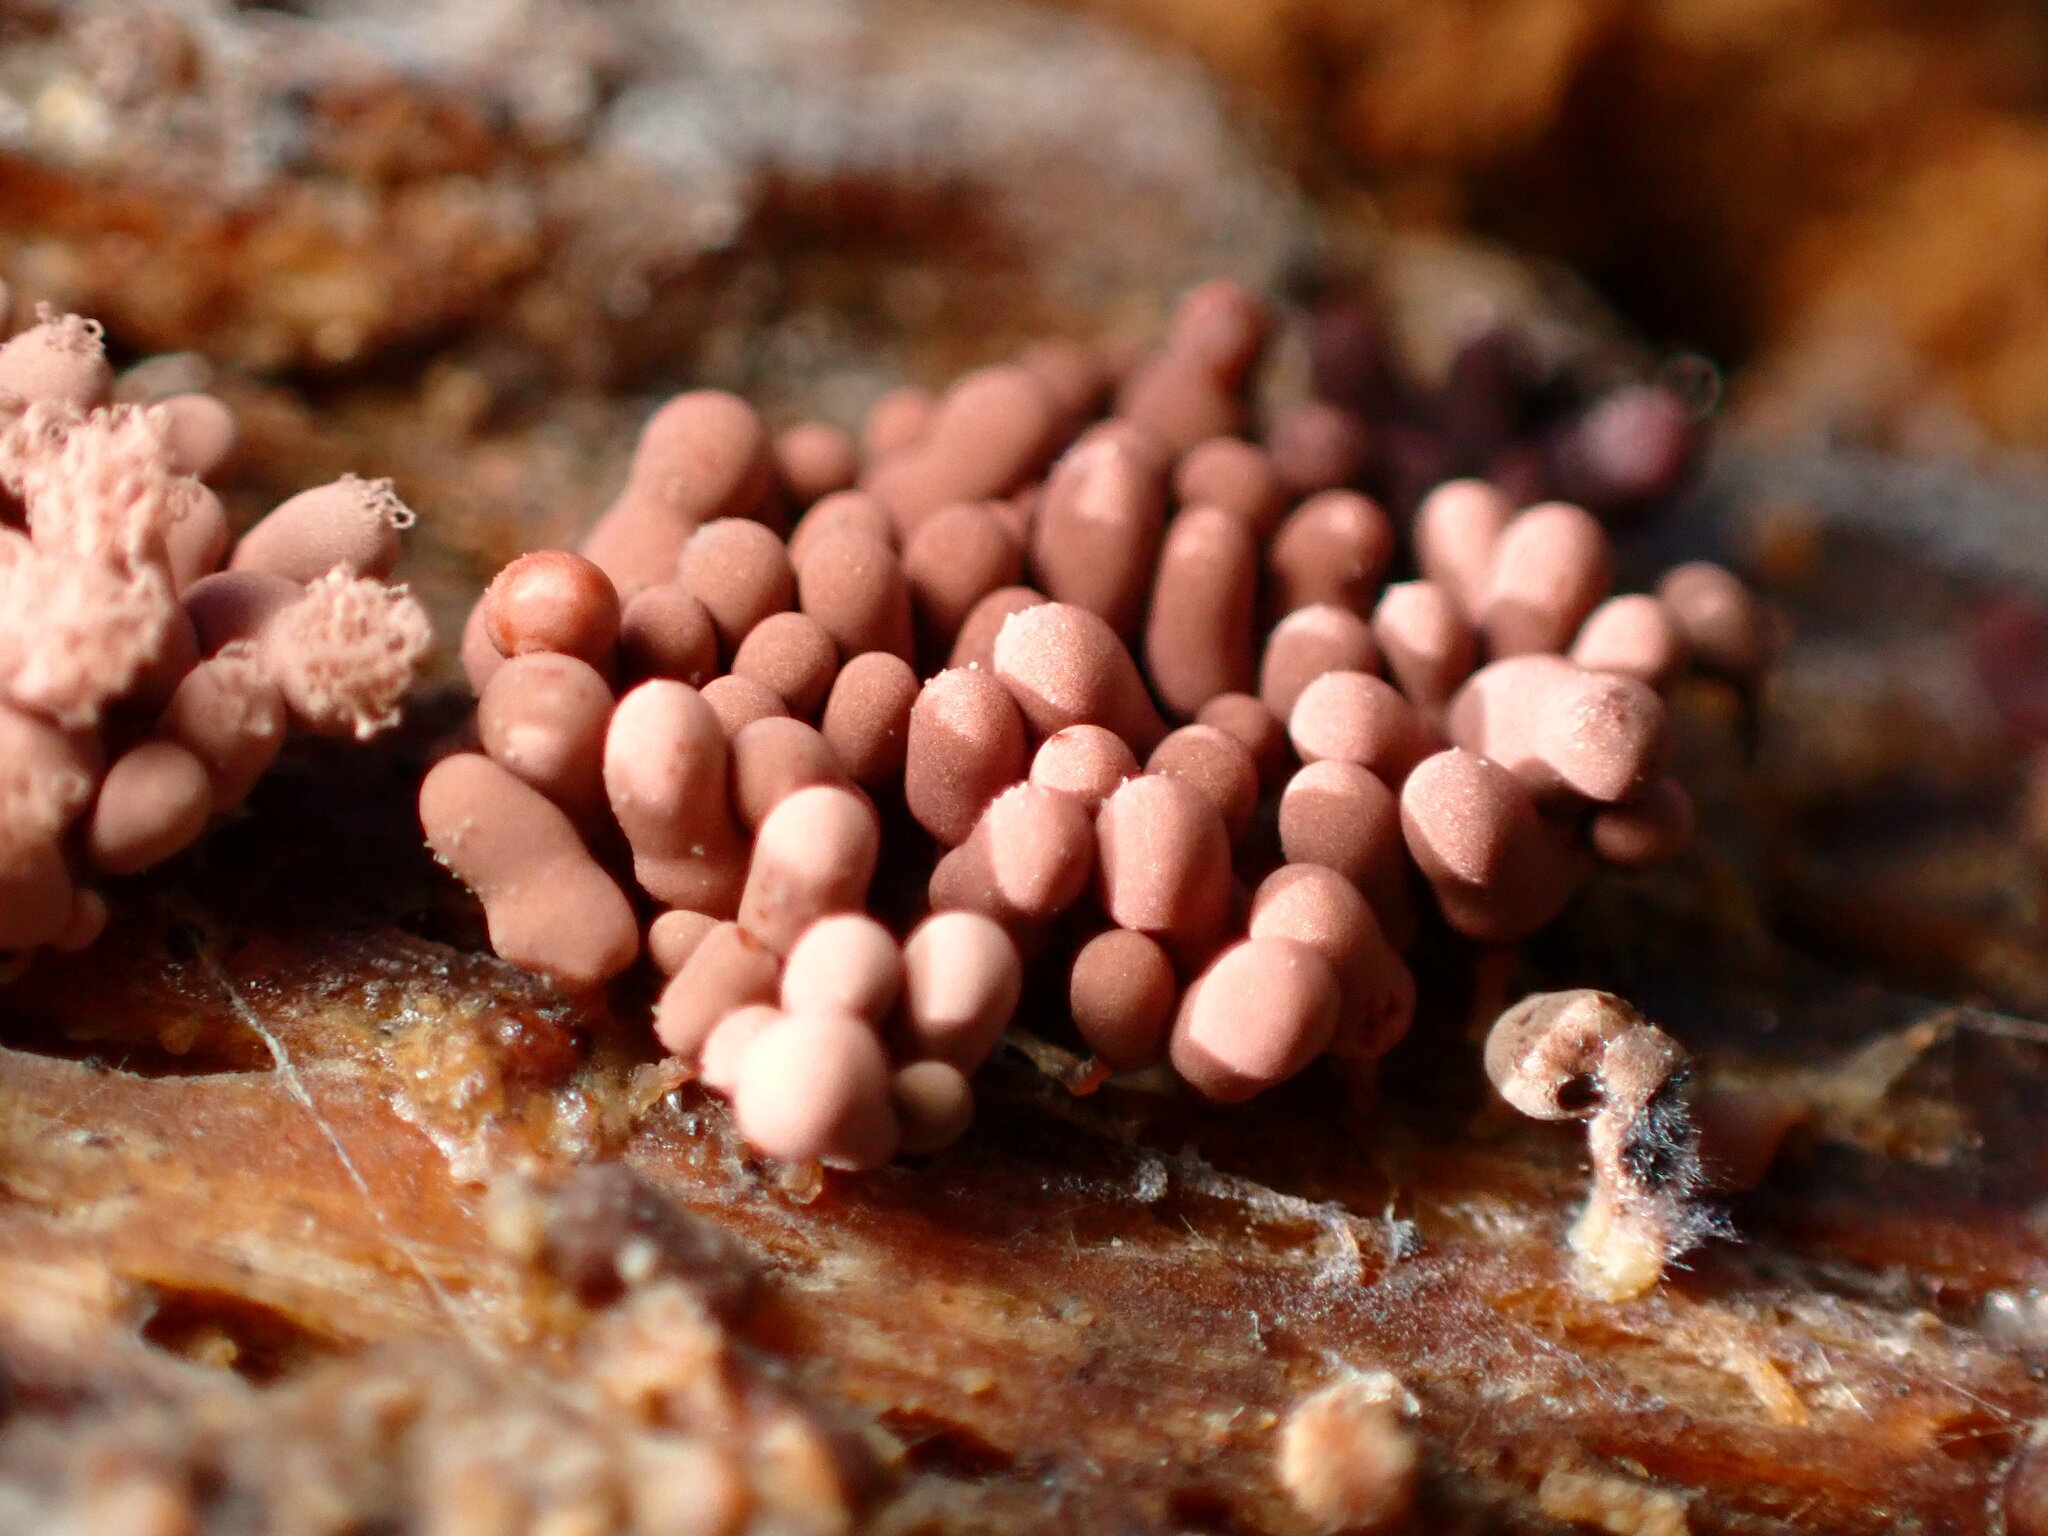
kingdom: Protozoa
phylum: Mycetozoa
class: Myxomycetes
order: Trichiales
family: Arcyriaceae
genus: Arcyria
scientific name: Arcyria denudata
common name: Carnival candy slime mold
